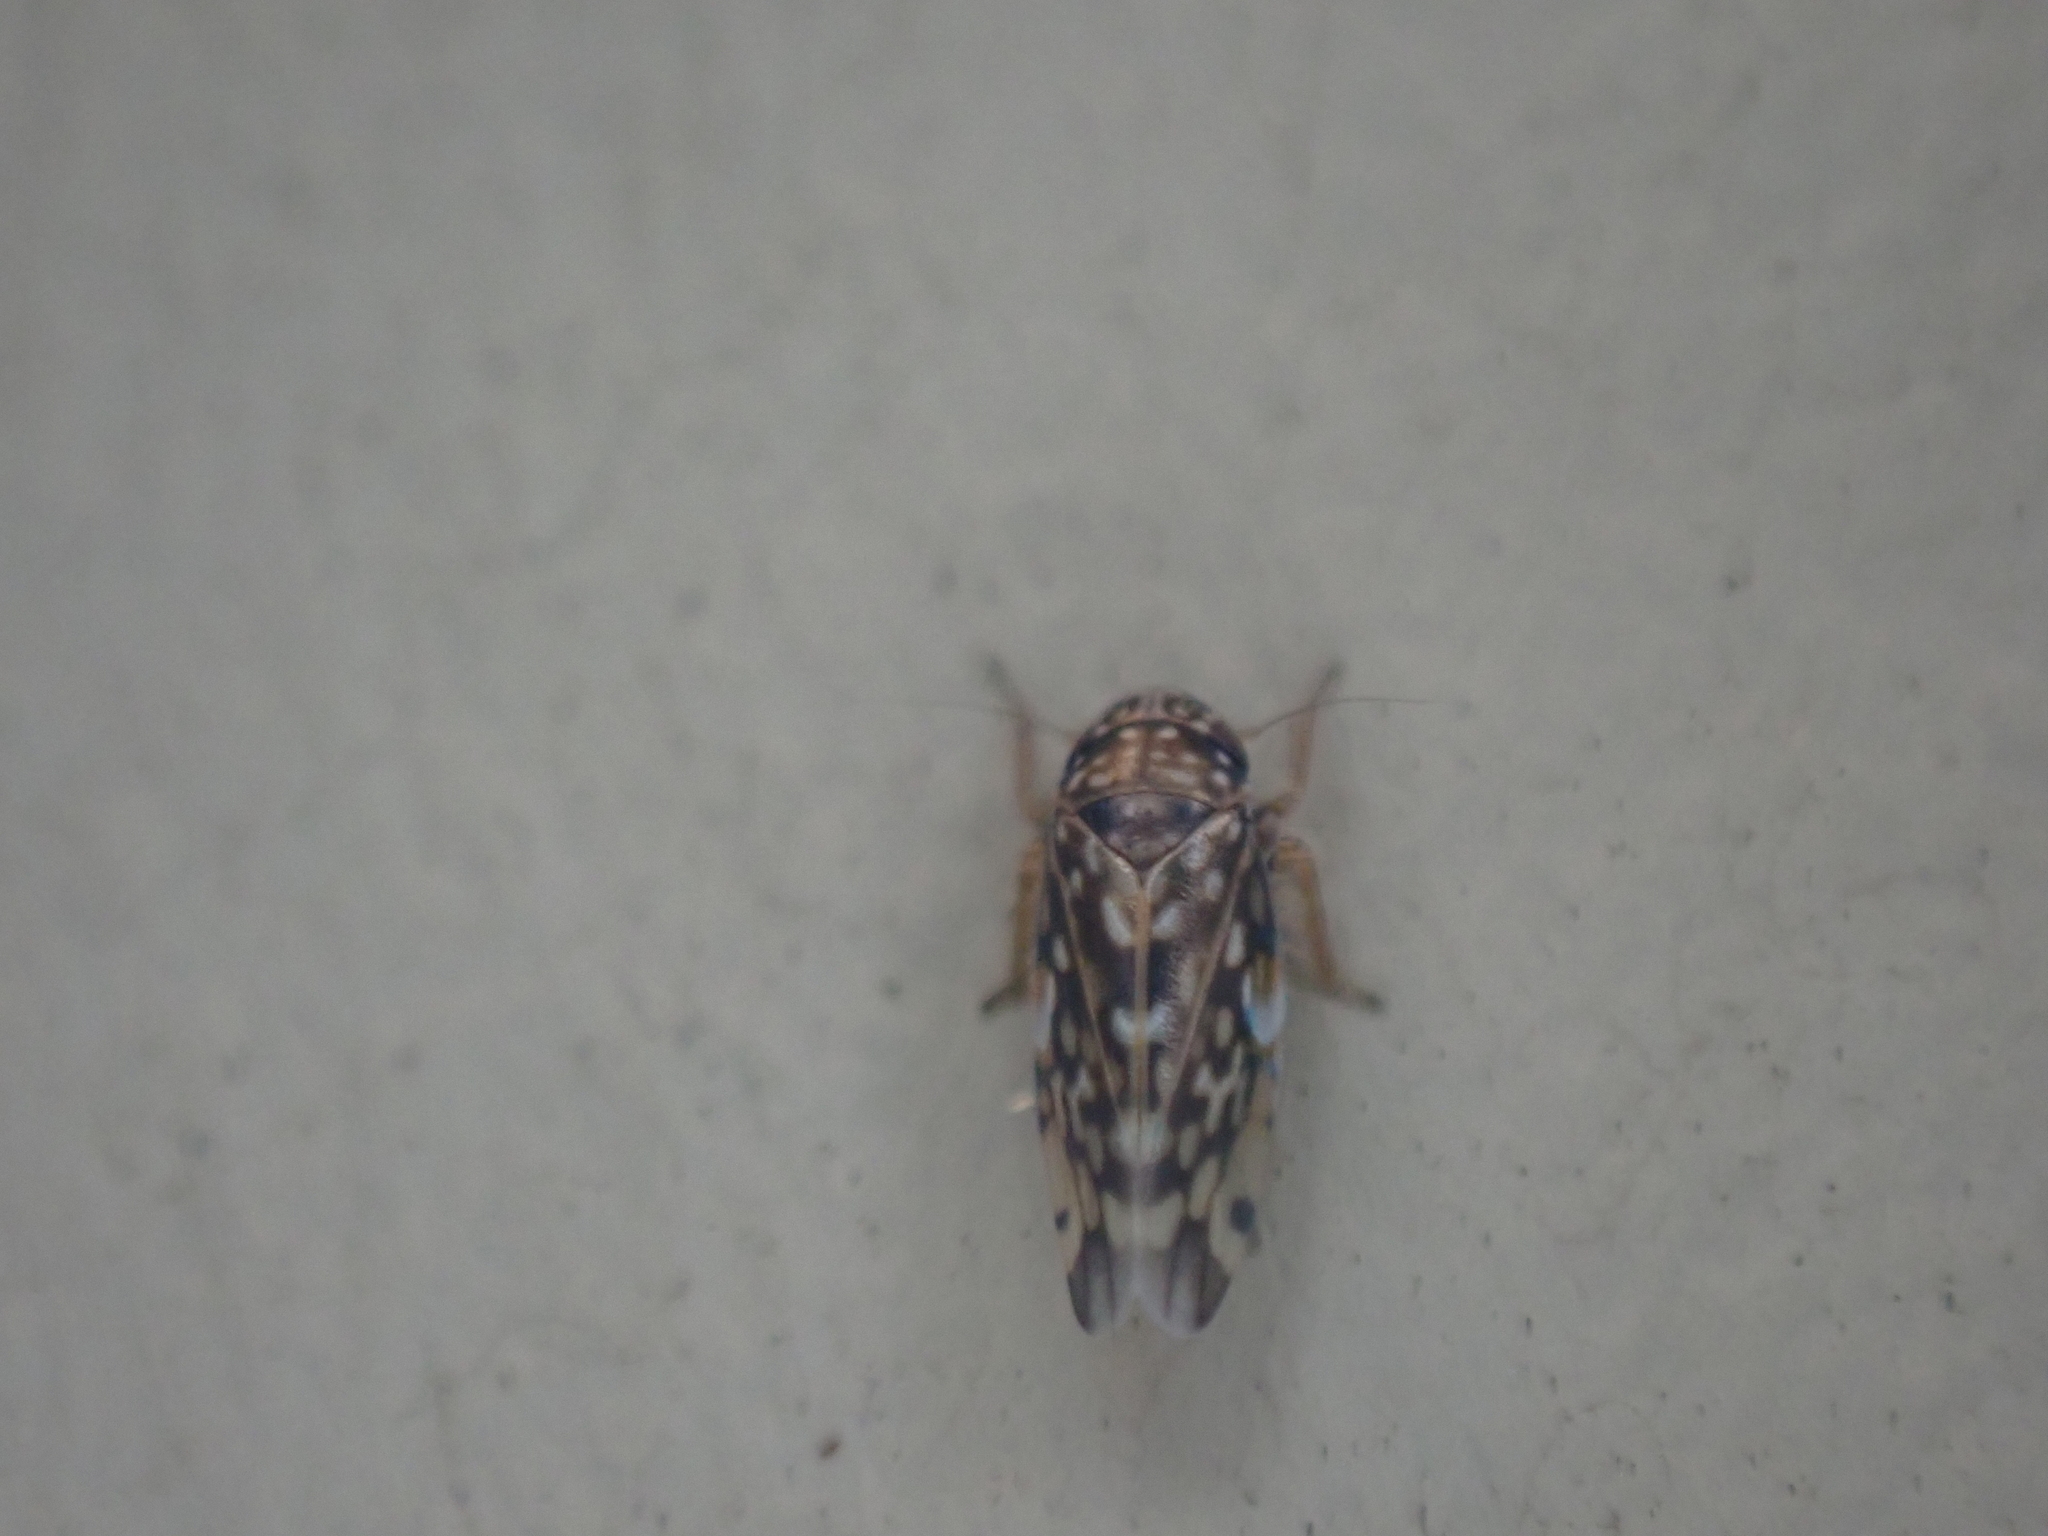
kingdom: Animalia
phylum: Arthropoda
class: Insecta
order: Hemiptera
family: Cicadellidae
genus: Xestocephalus
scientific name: Xestocephalus superbus
